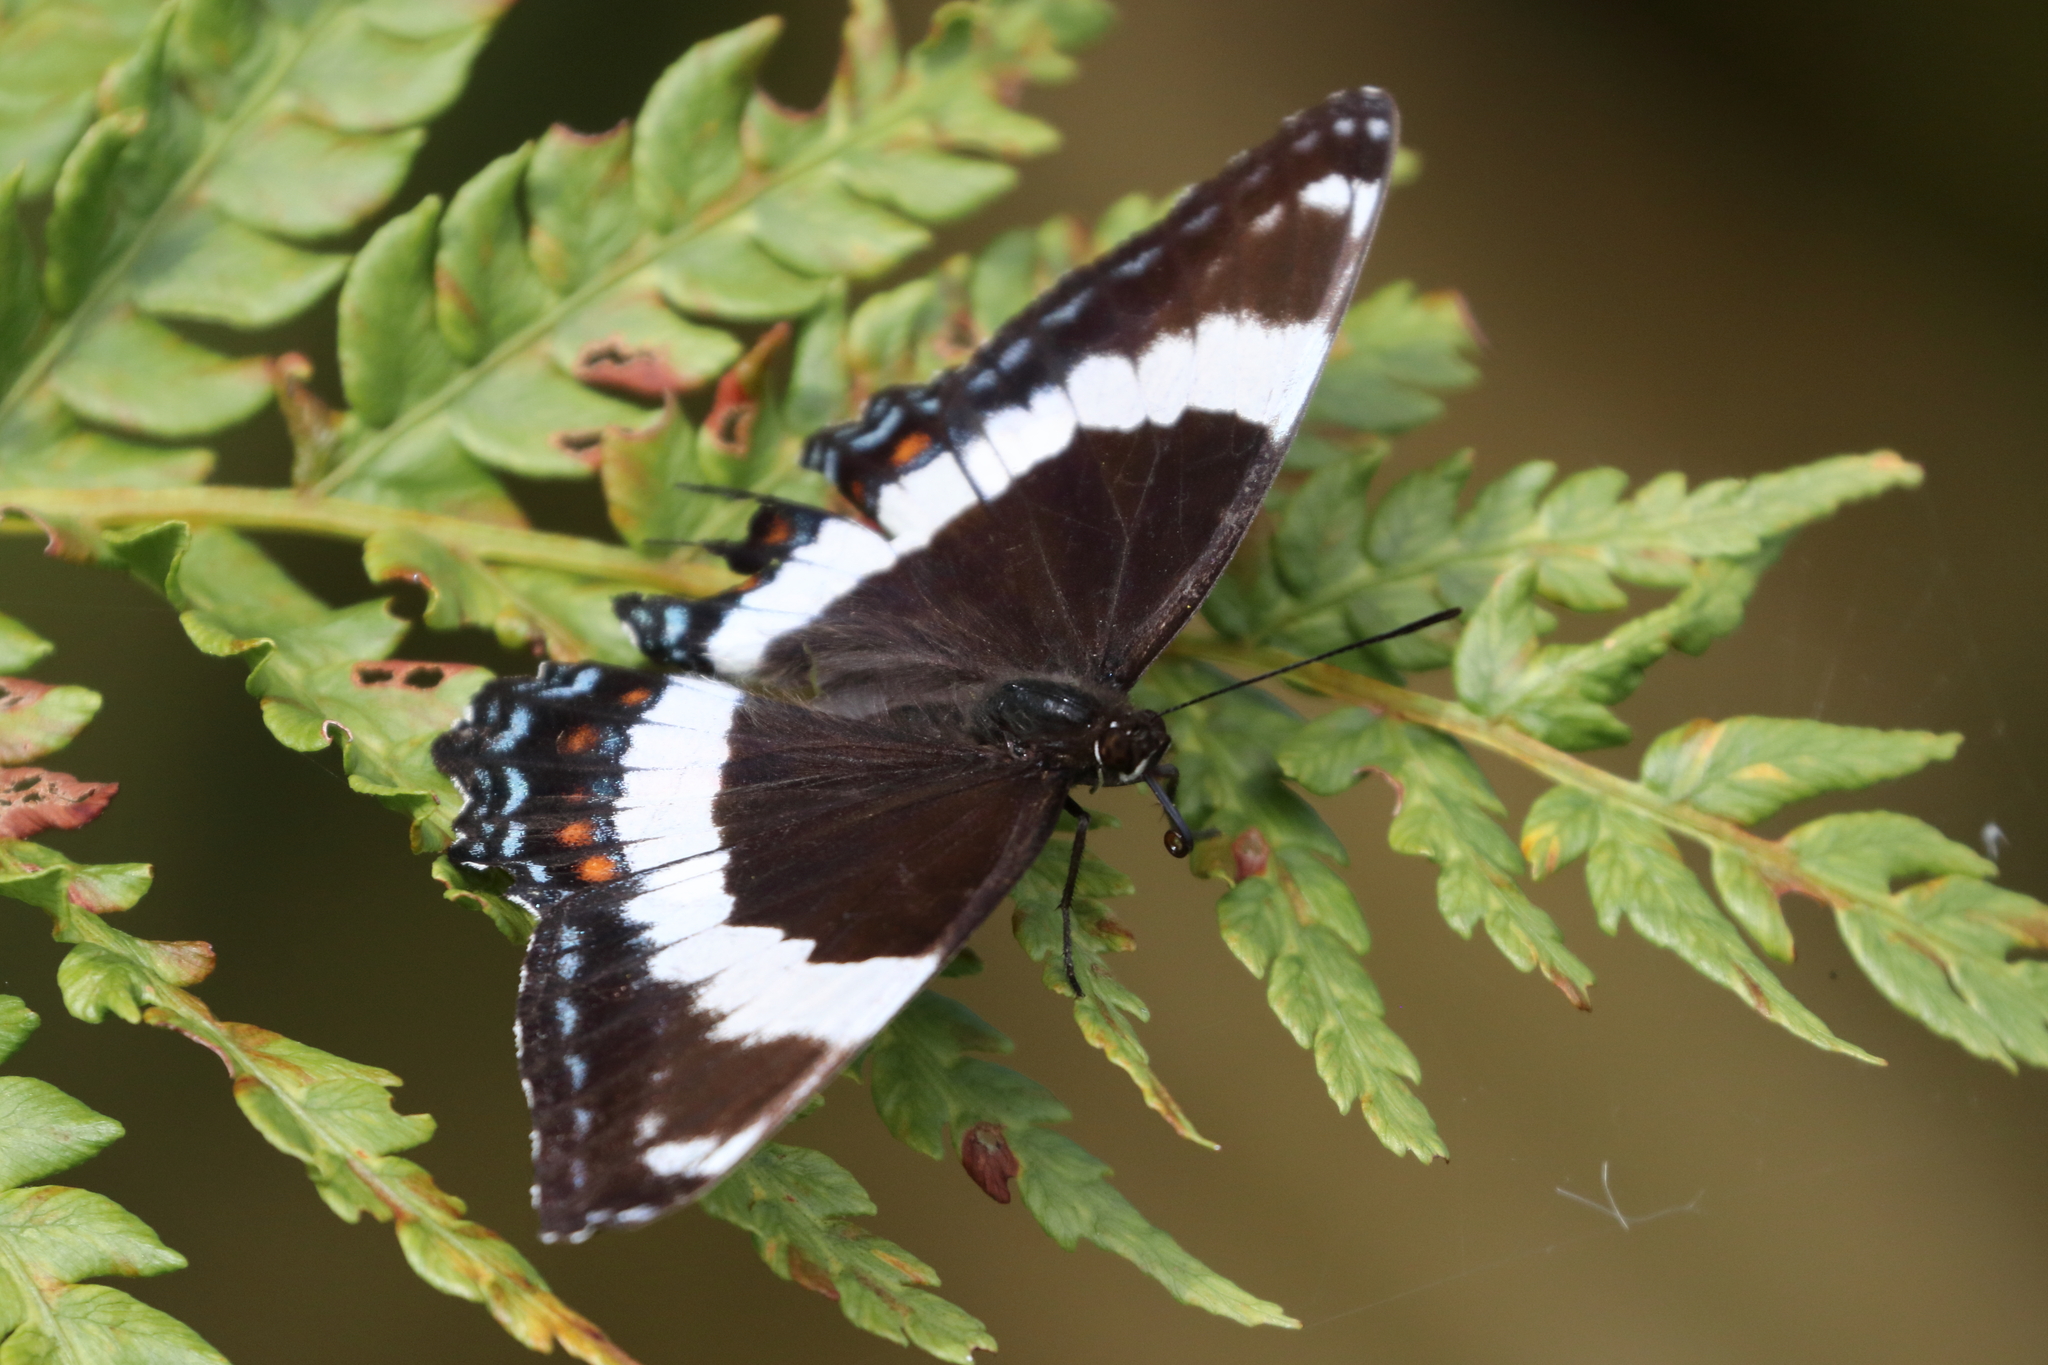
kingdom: Animalia
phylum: Arthropoda
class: Insecta
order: Lepidoptera
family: Nymphalidae
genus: Limenitis
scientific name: Limenitis arthemis
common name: Red-spotted admiral
